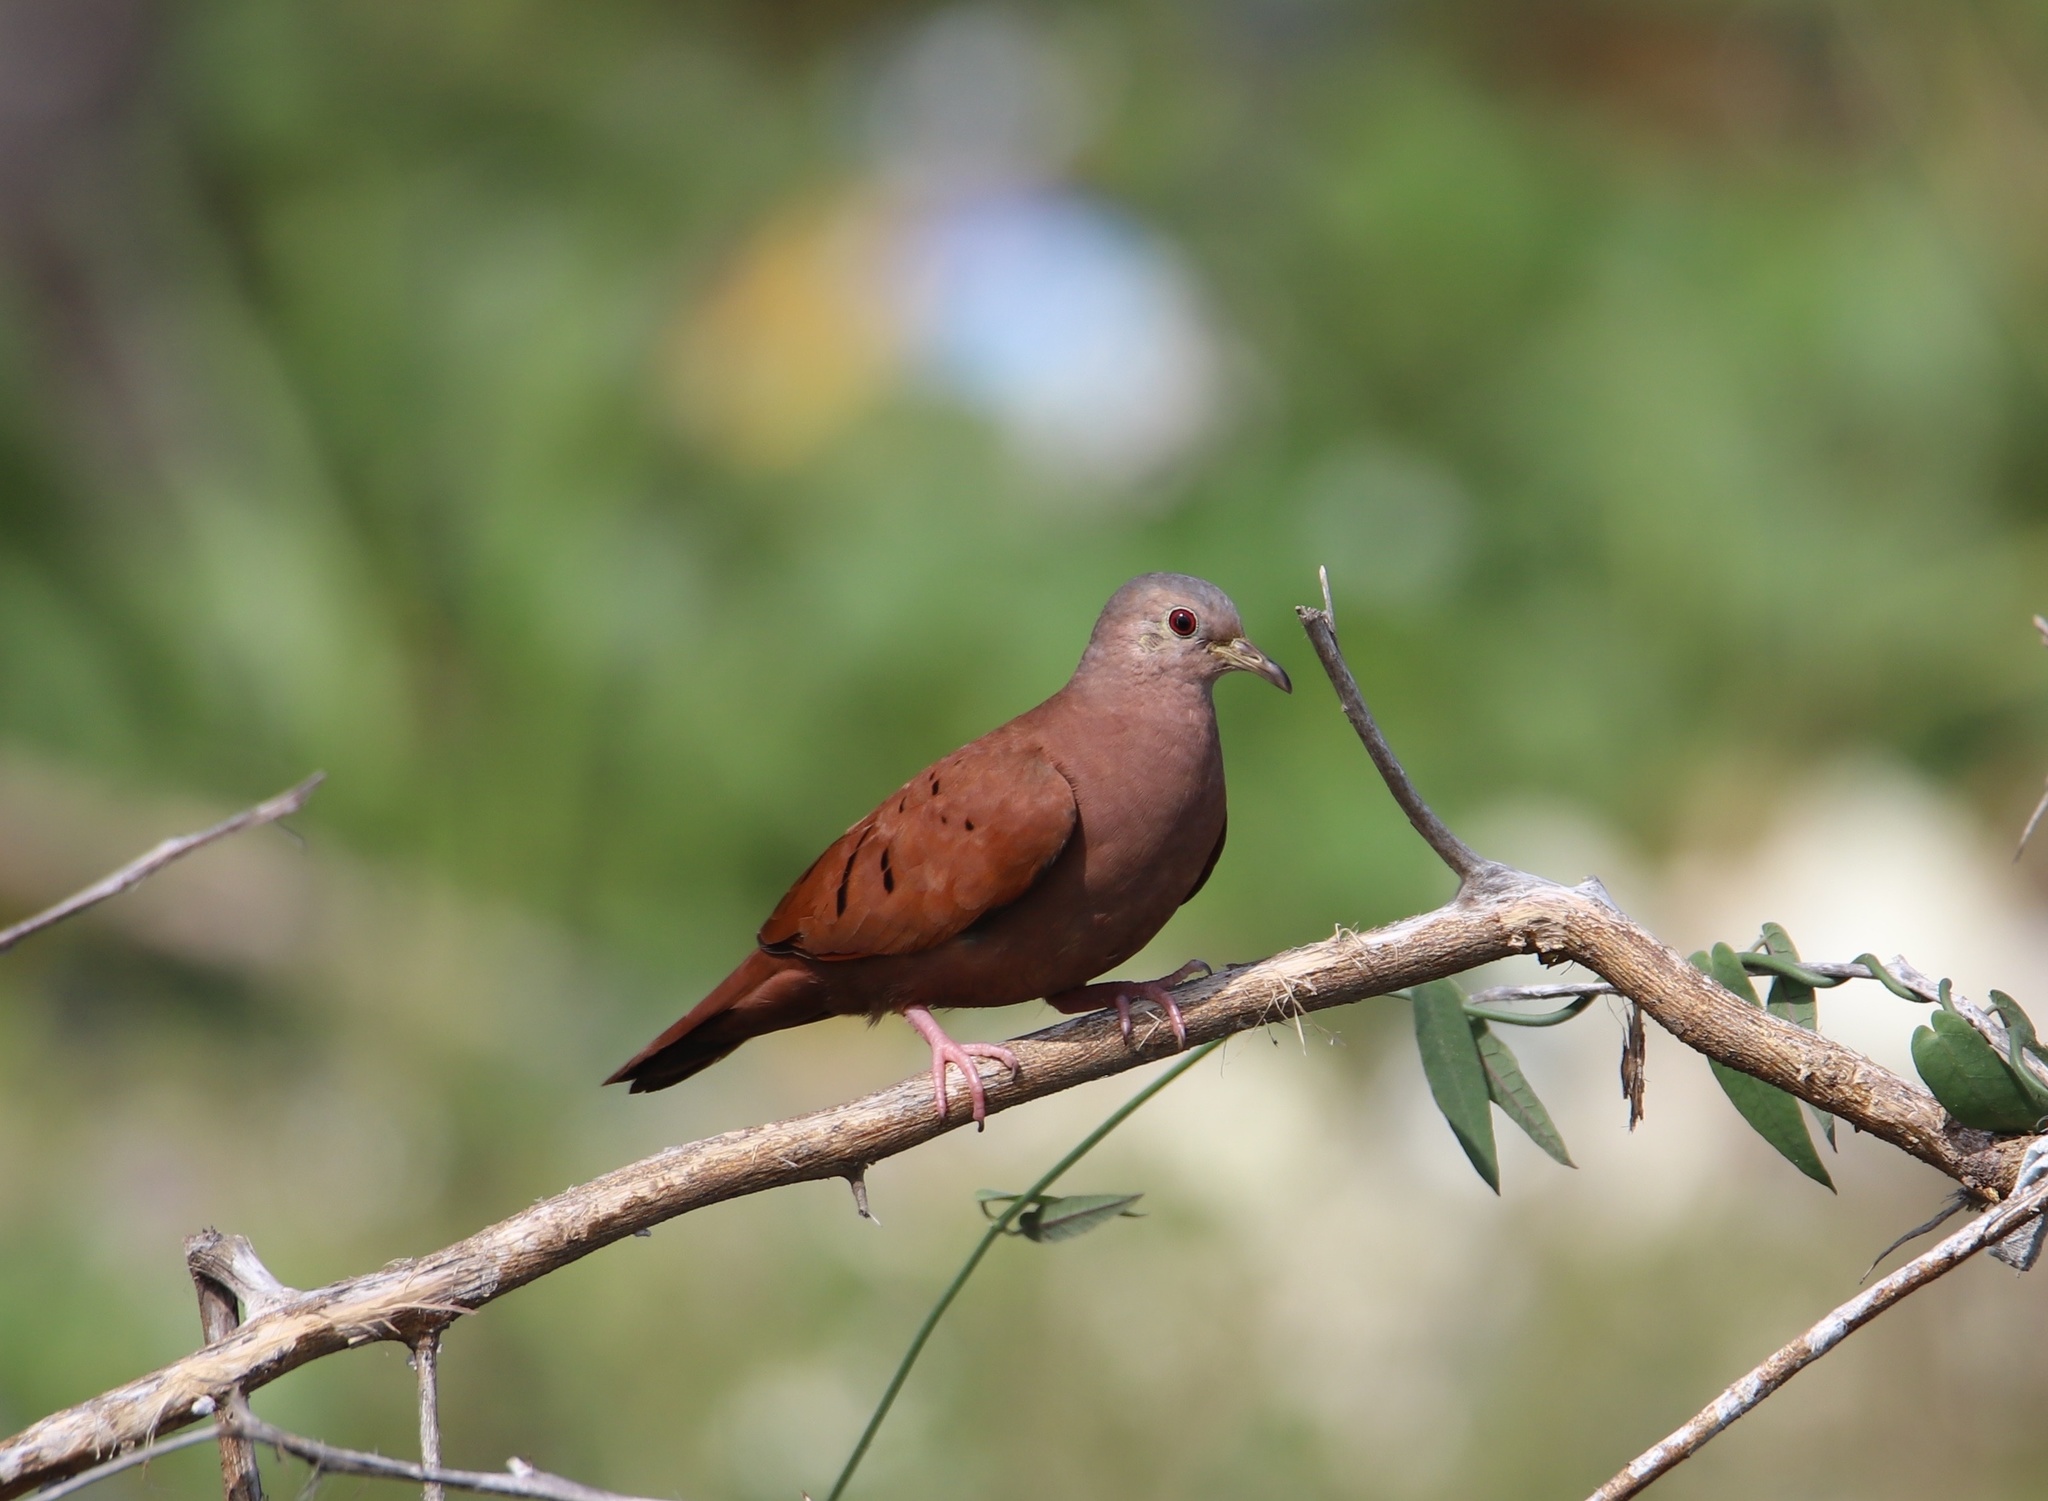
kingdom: Animalia
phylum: Chordata
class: Aves
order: Columbiformes
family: Columbidae
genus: Columbina
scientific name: Columbina talpacoti
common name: Ruddy ground dove
